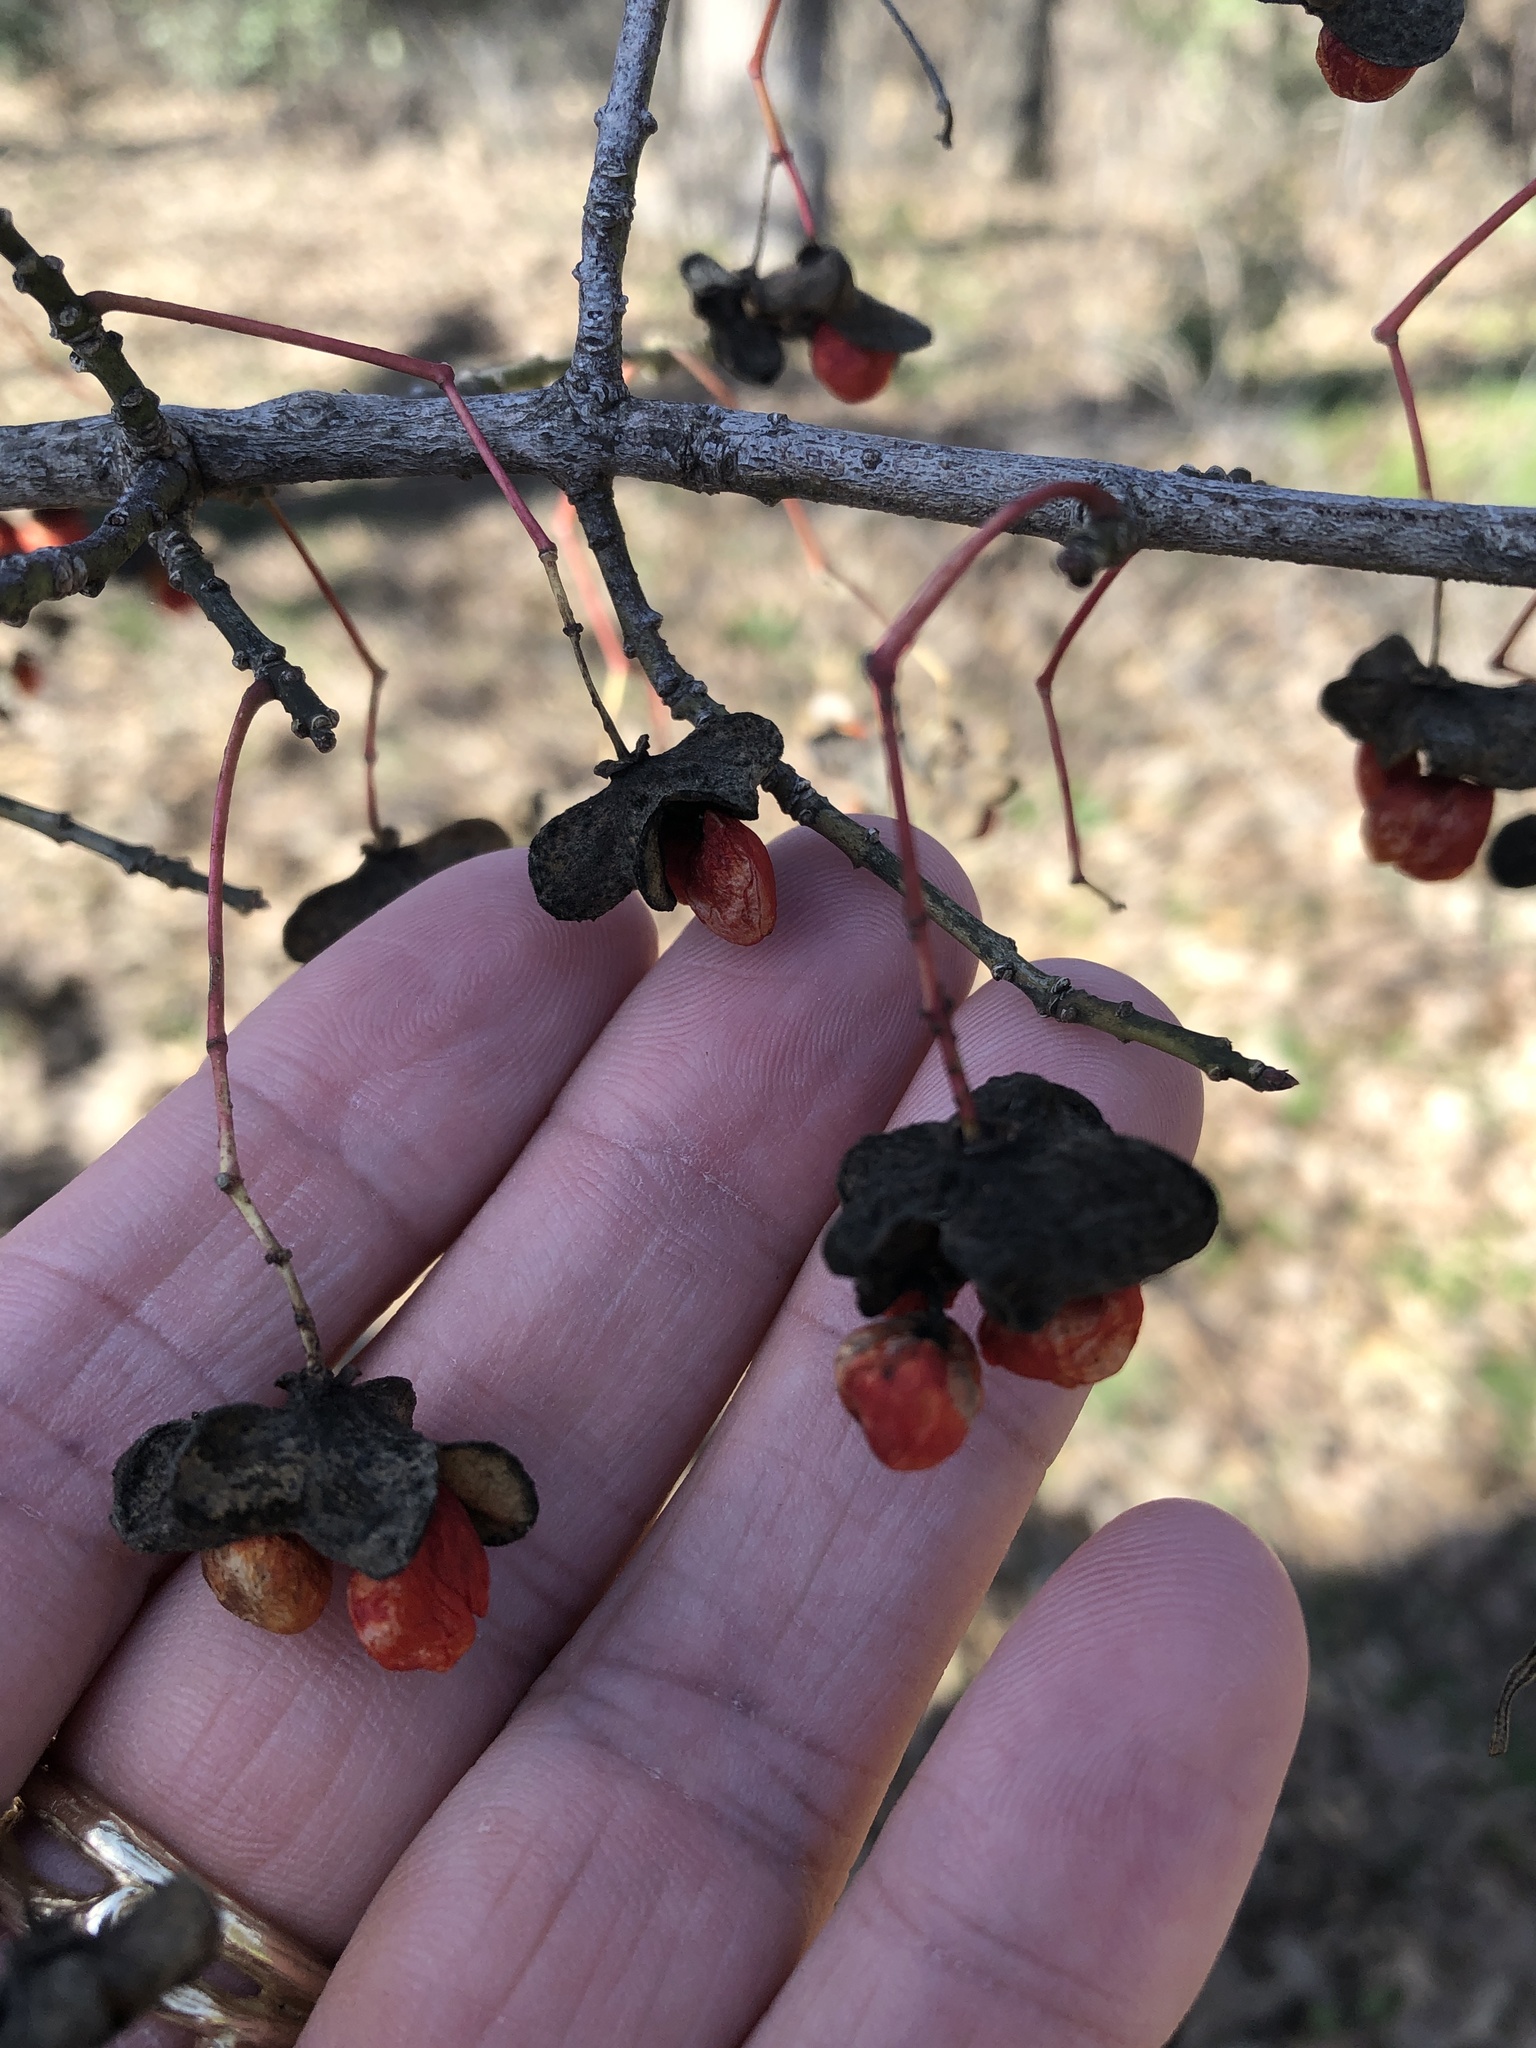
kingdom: Plantae
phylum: Tracheophyta
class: Magnoliopsida
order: Celastrales
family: Celastraceae
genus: Euonymus
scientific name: Euonymus atropurpureus
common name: Eastern wahoo
